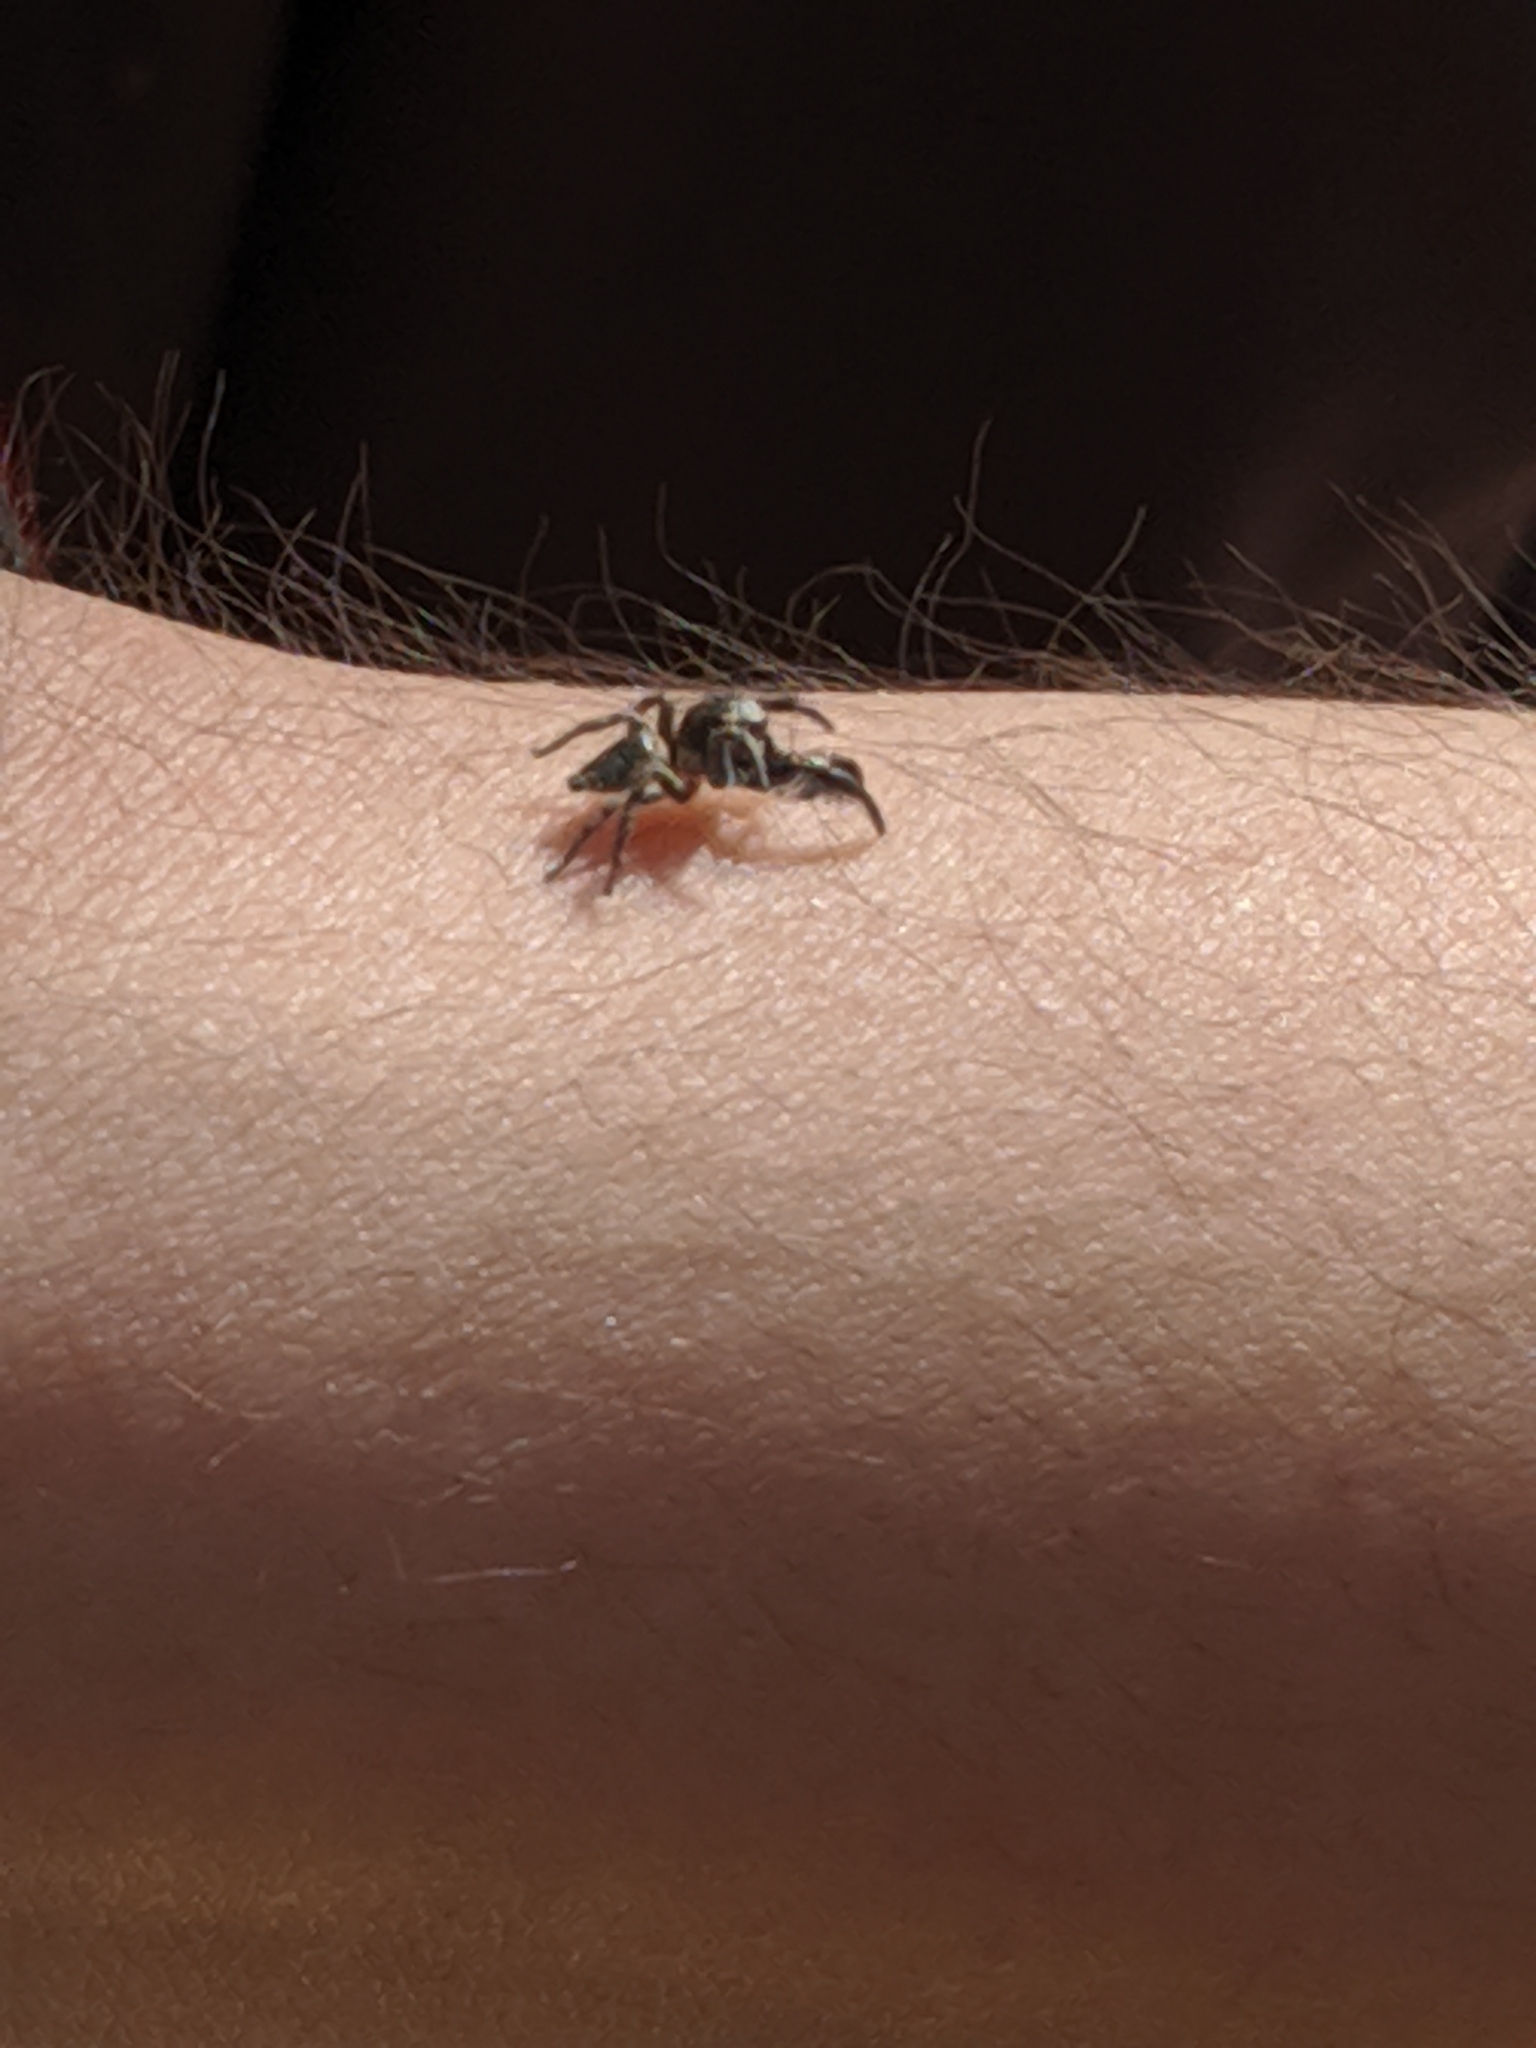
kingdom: Animalia
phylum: Arthropoda
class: Arachnida
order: Araneae
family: Salticidae
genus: Habronattus
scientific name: Habronattus hirsutus
